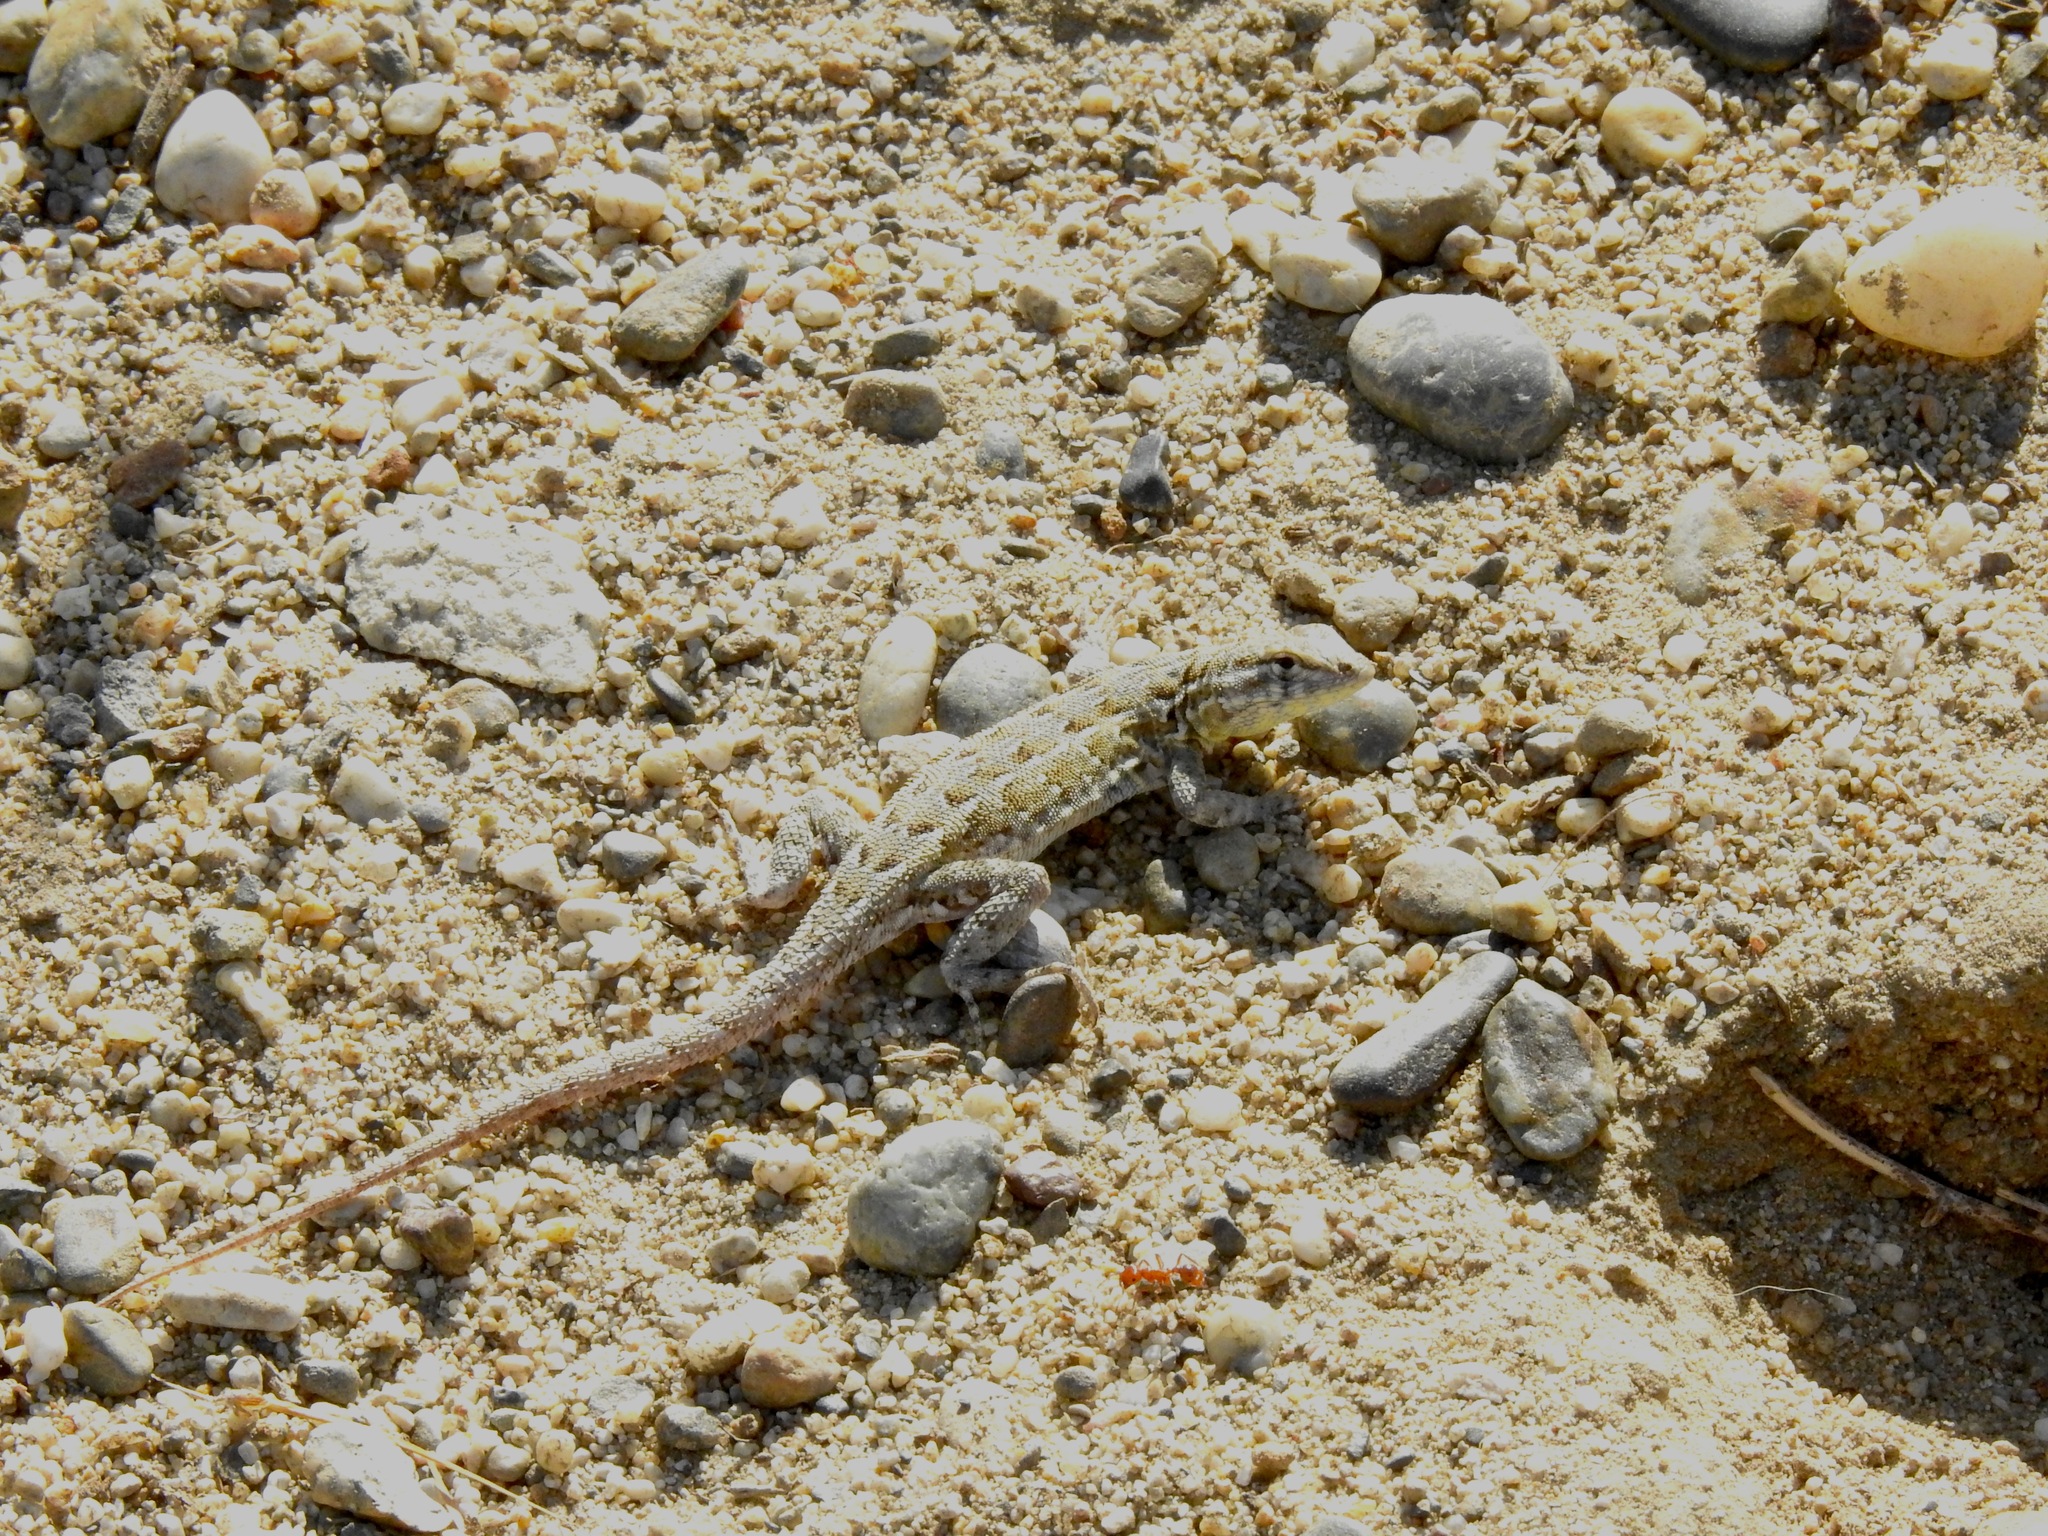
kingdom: Animalia
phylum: Chordata
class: Squamata
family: Phrynosomatidae
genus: Uta
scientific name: Uta stansburiana
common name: Side-blotched lizard
